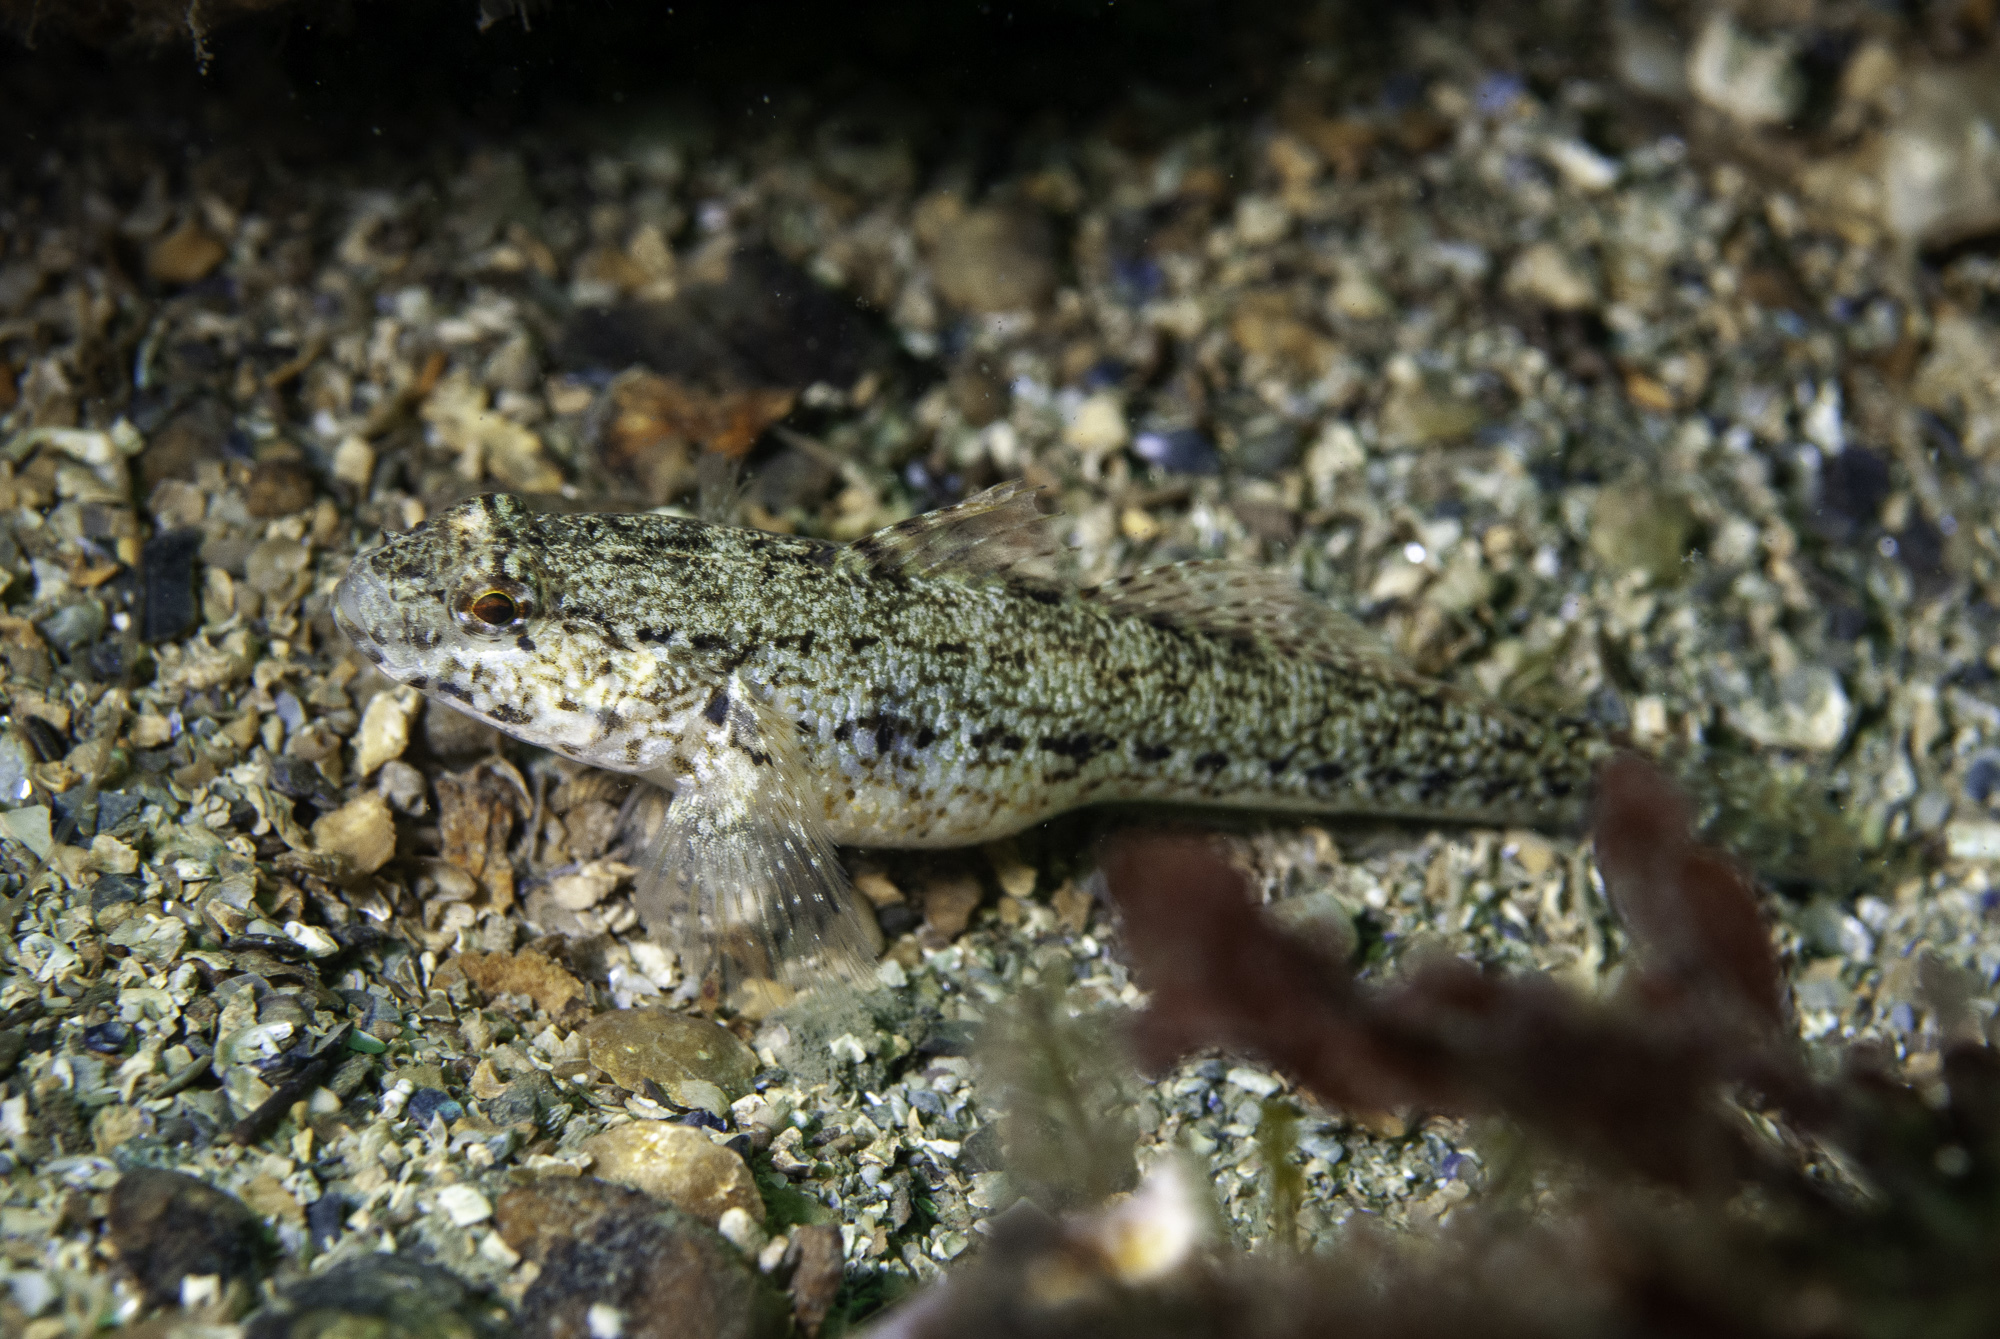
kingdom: Animalia
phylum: Chordata
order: Perciformes
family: Gobiidae
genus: Gobius
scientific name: Gobius couchi
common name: Couch's goby
